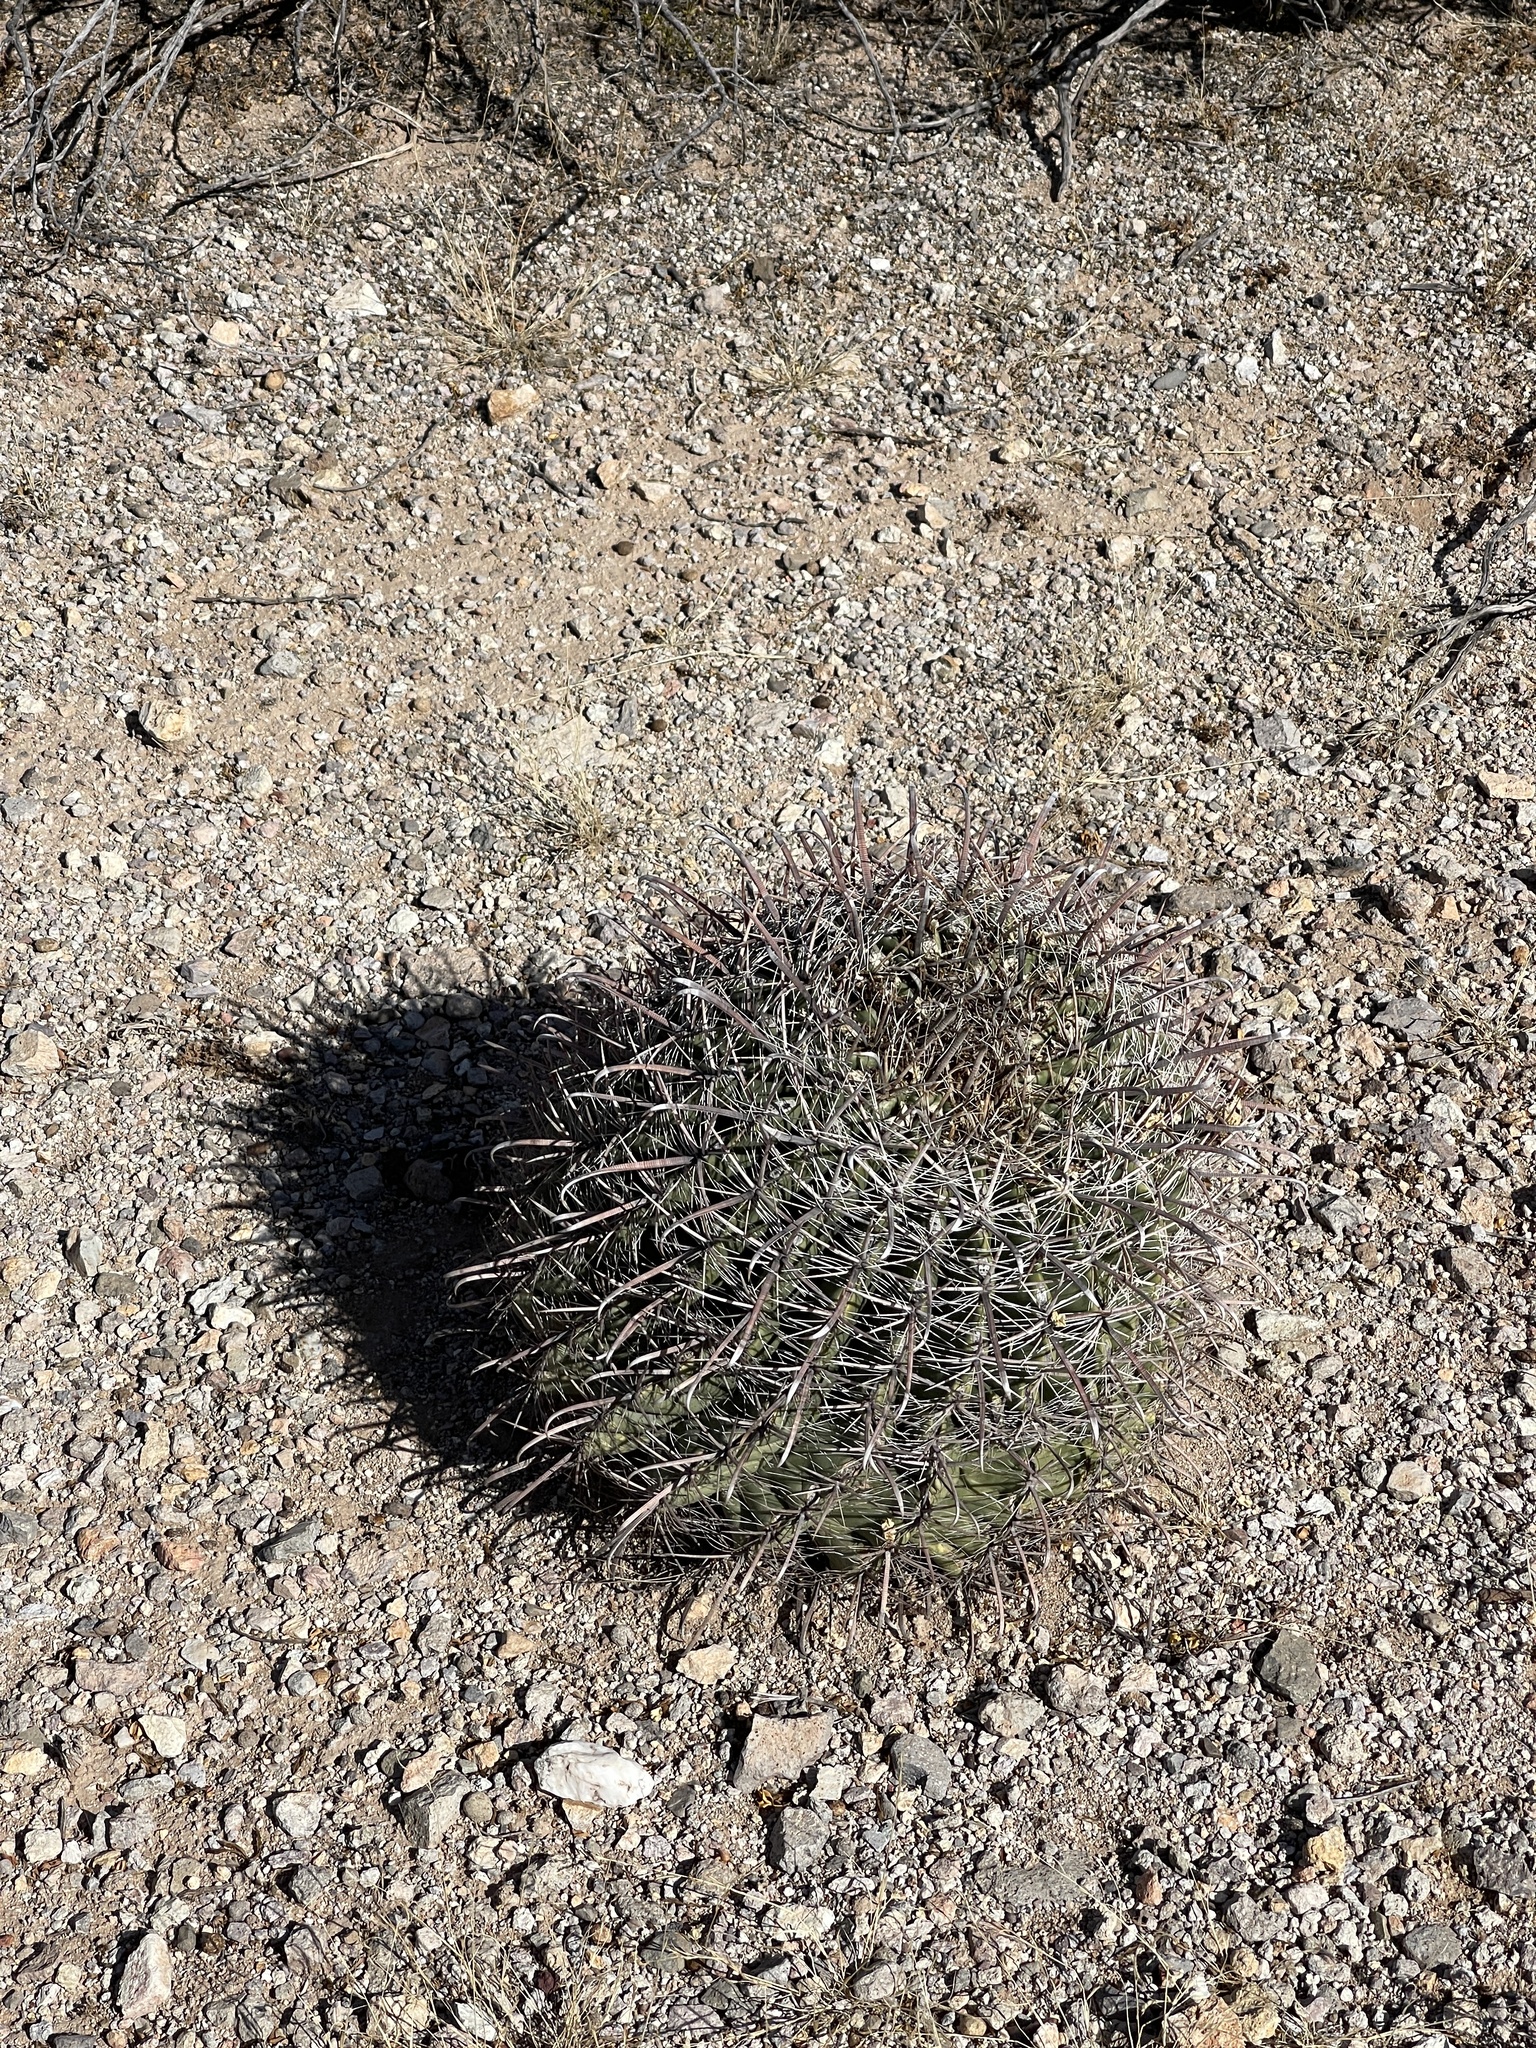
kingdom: Plantae
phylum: Tracheophyta
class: Magnoliopsida
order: Caryophyllales
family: Cactaceae
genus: Ferocactus
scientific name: Ferocactus wislizeni
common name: Candy barrel cactus
